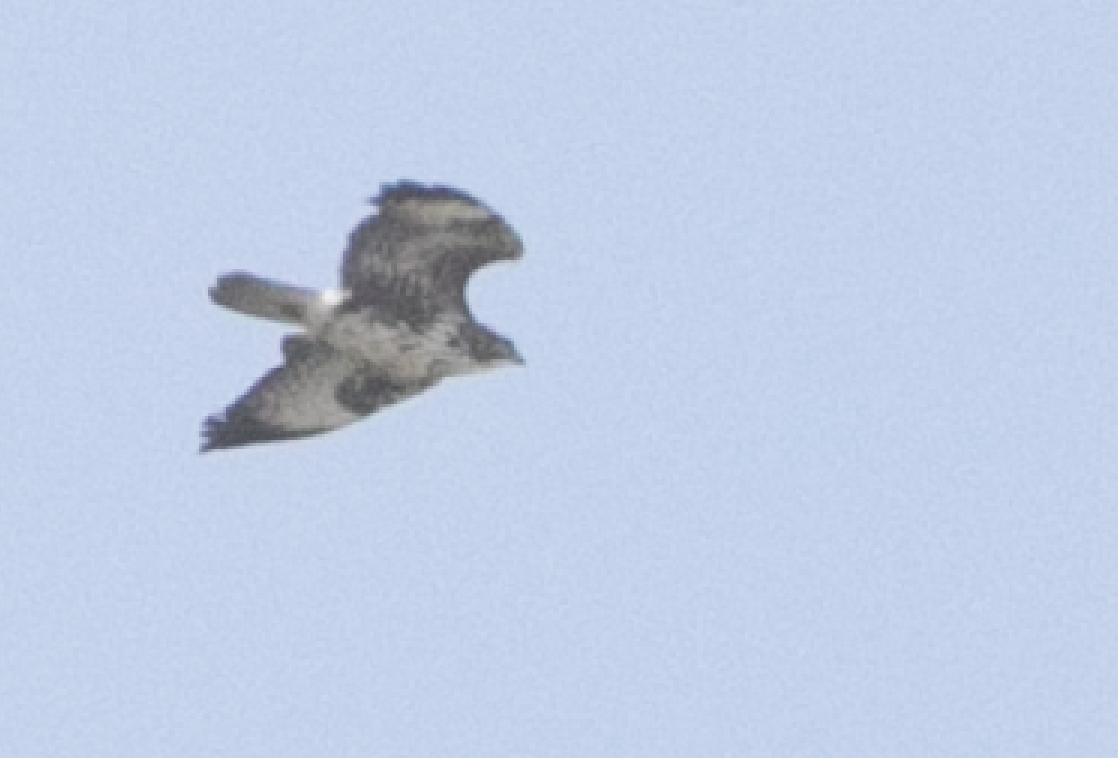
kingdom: Animalia
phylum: Chordata
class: Aves
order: Accipitriformes
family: Accipitridae
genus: Buteo
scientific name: Buteo buteo
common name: Common buzzard
